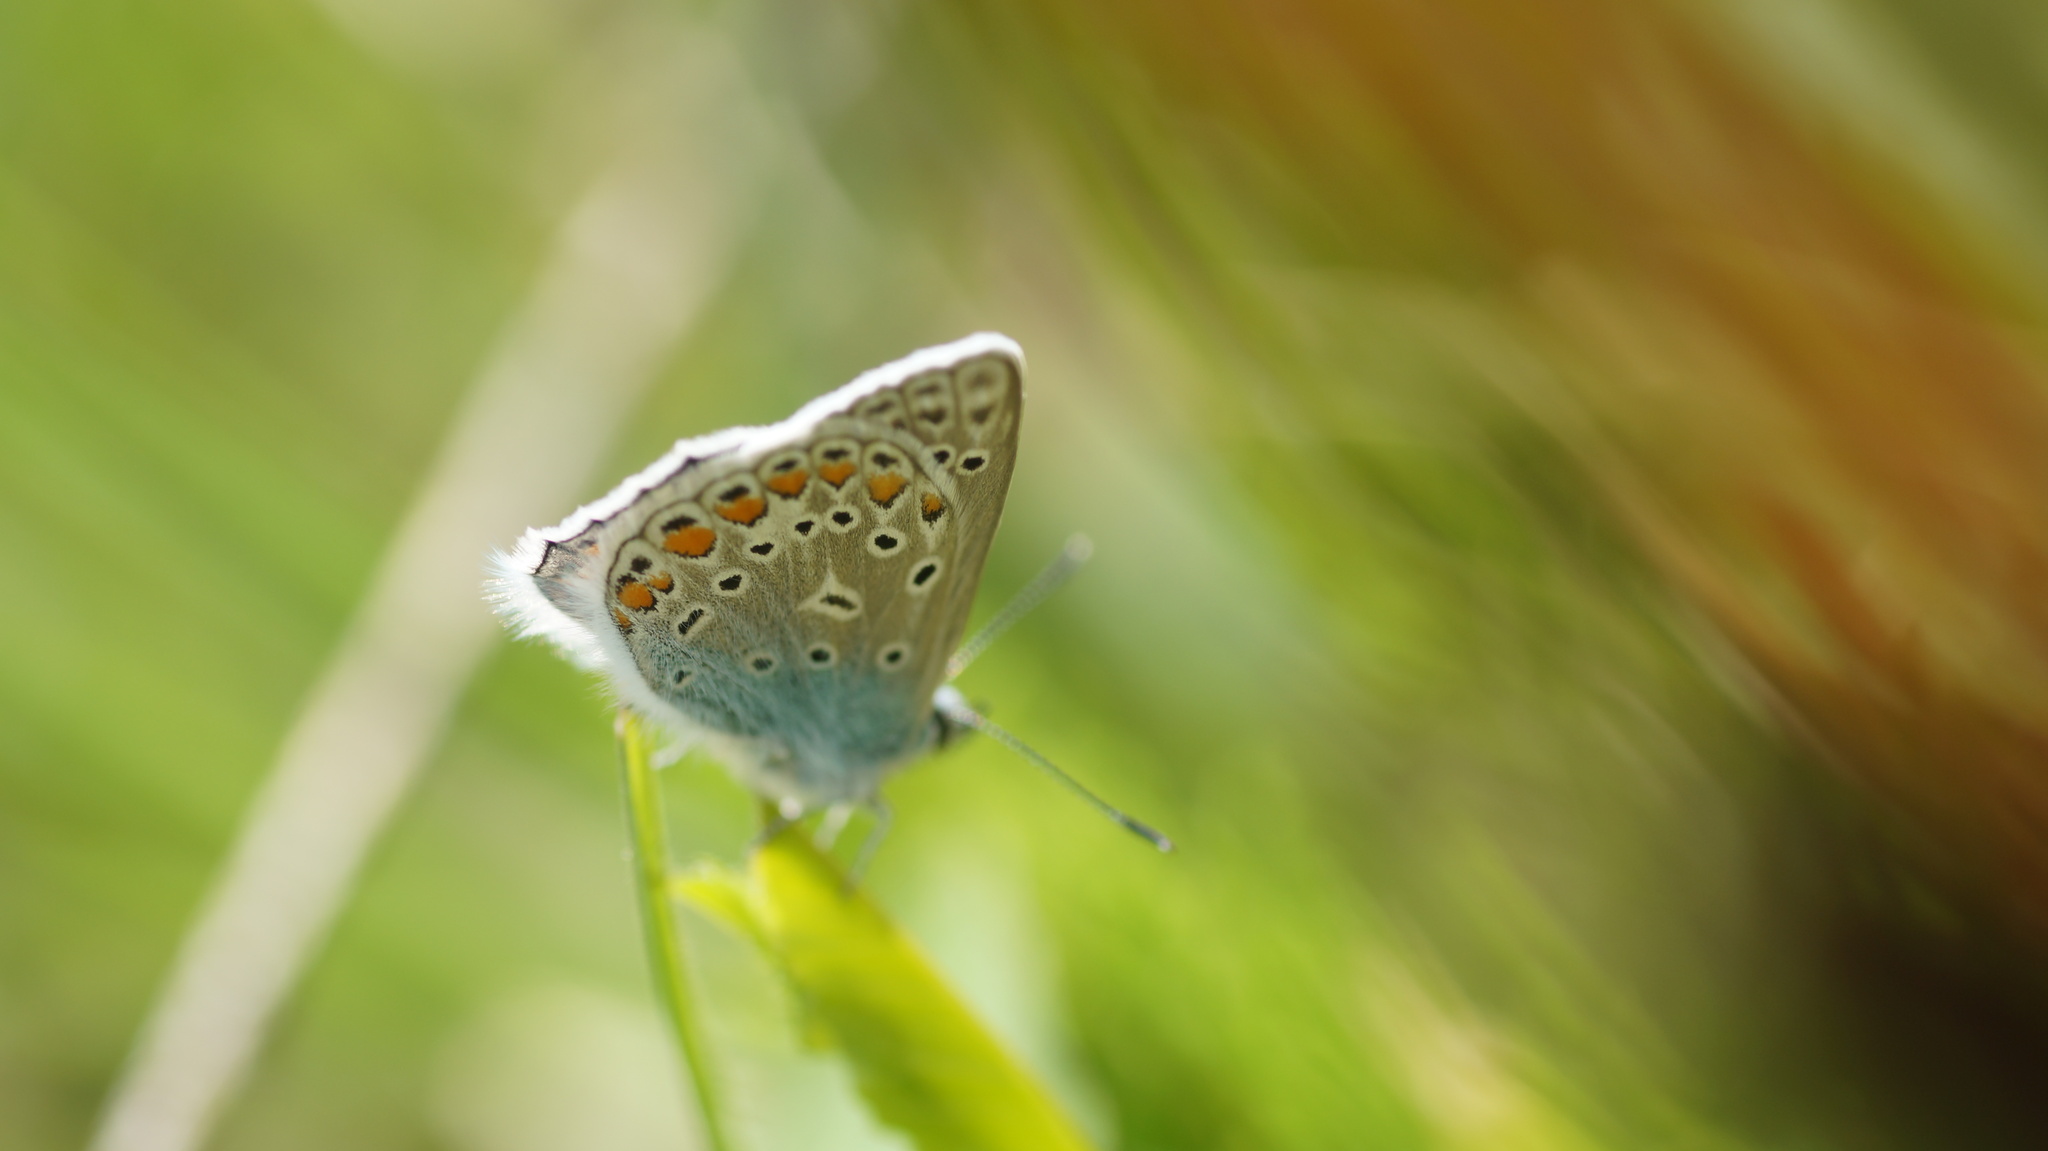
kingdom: Animalia
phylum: Arthropoda
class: Insecta
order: Lepidoptera
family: Lycaenidae
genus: Polyommatus
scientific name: Polyommatus
